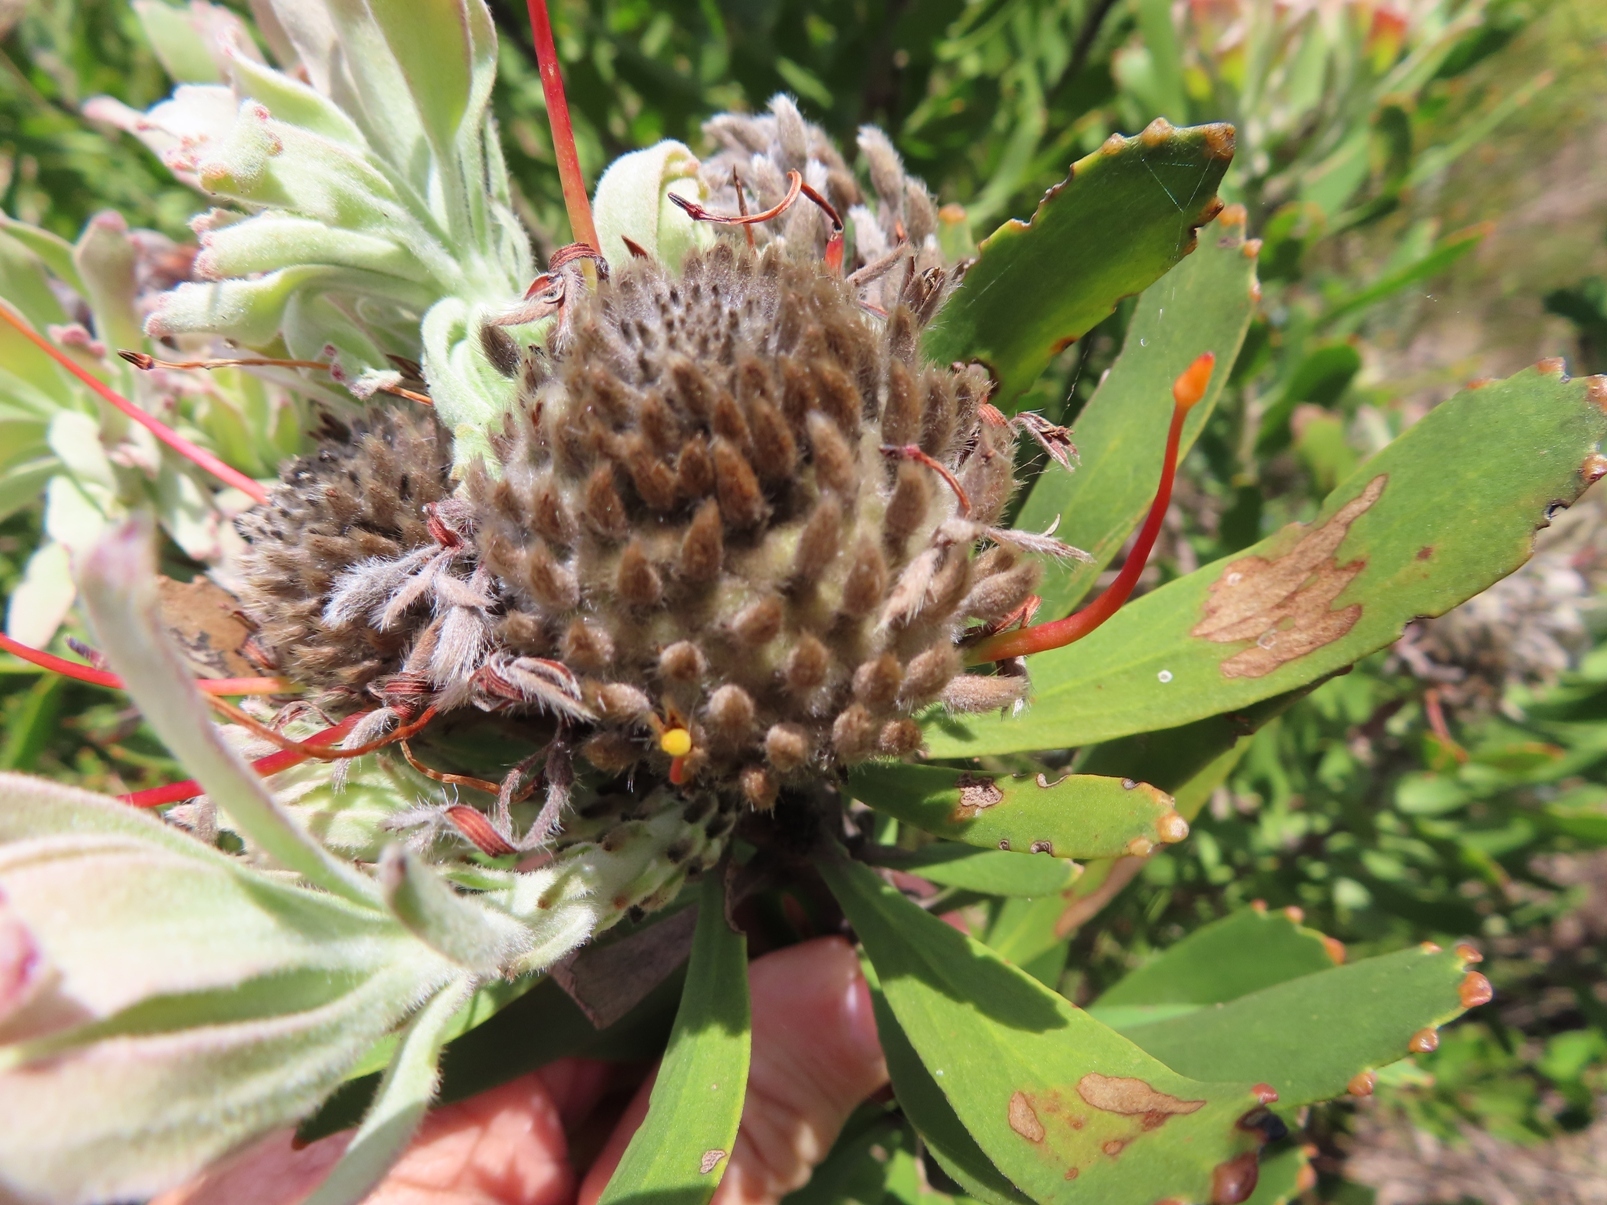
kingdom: Plantae
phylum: Tracheophyta
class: Magnoliopsida
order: Proteales
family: Proteaceae
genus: Leucospermum
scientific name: Leucospermum fulgens
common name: Potberg pincushion
